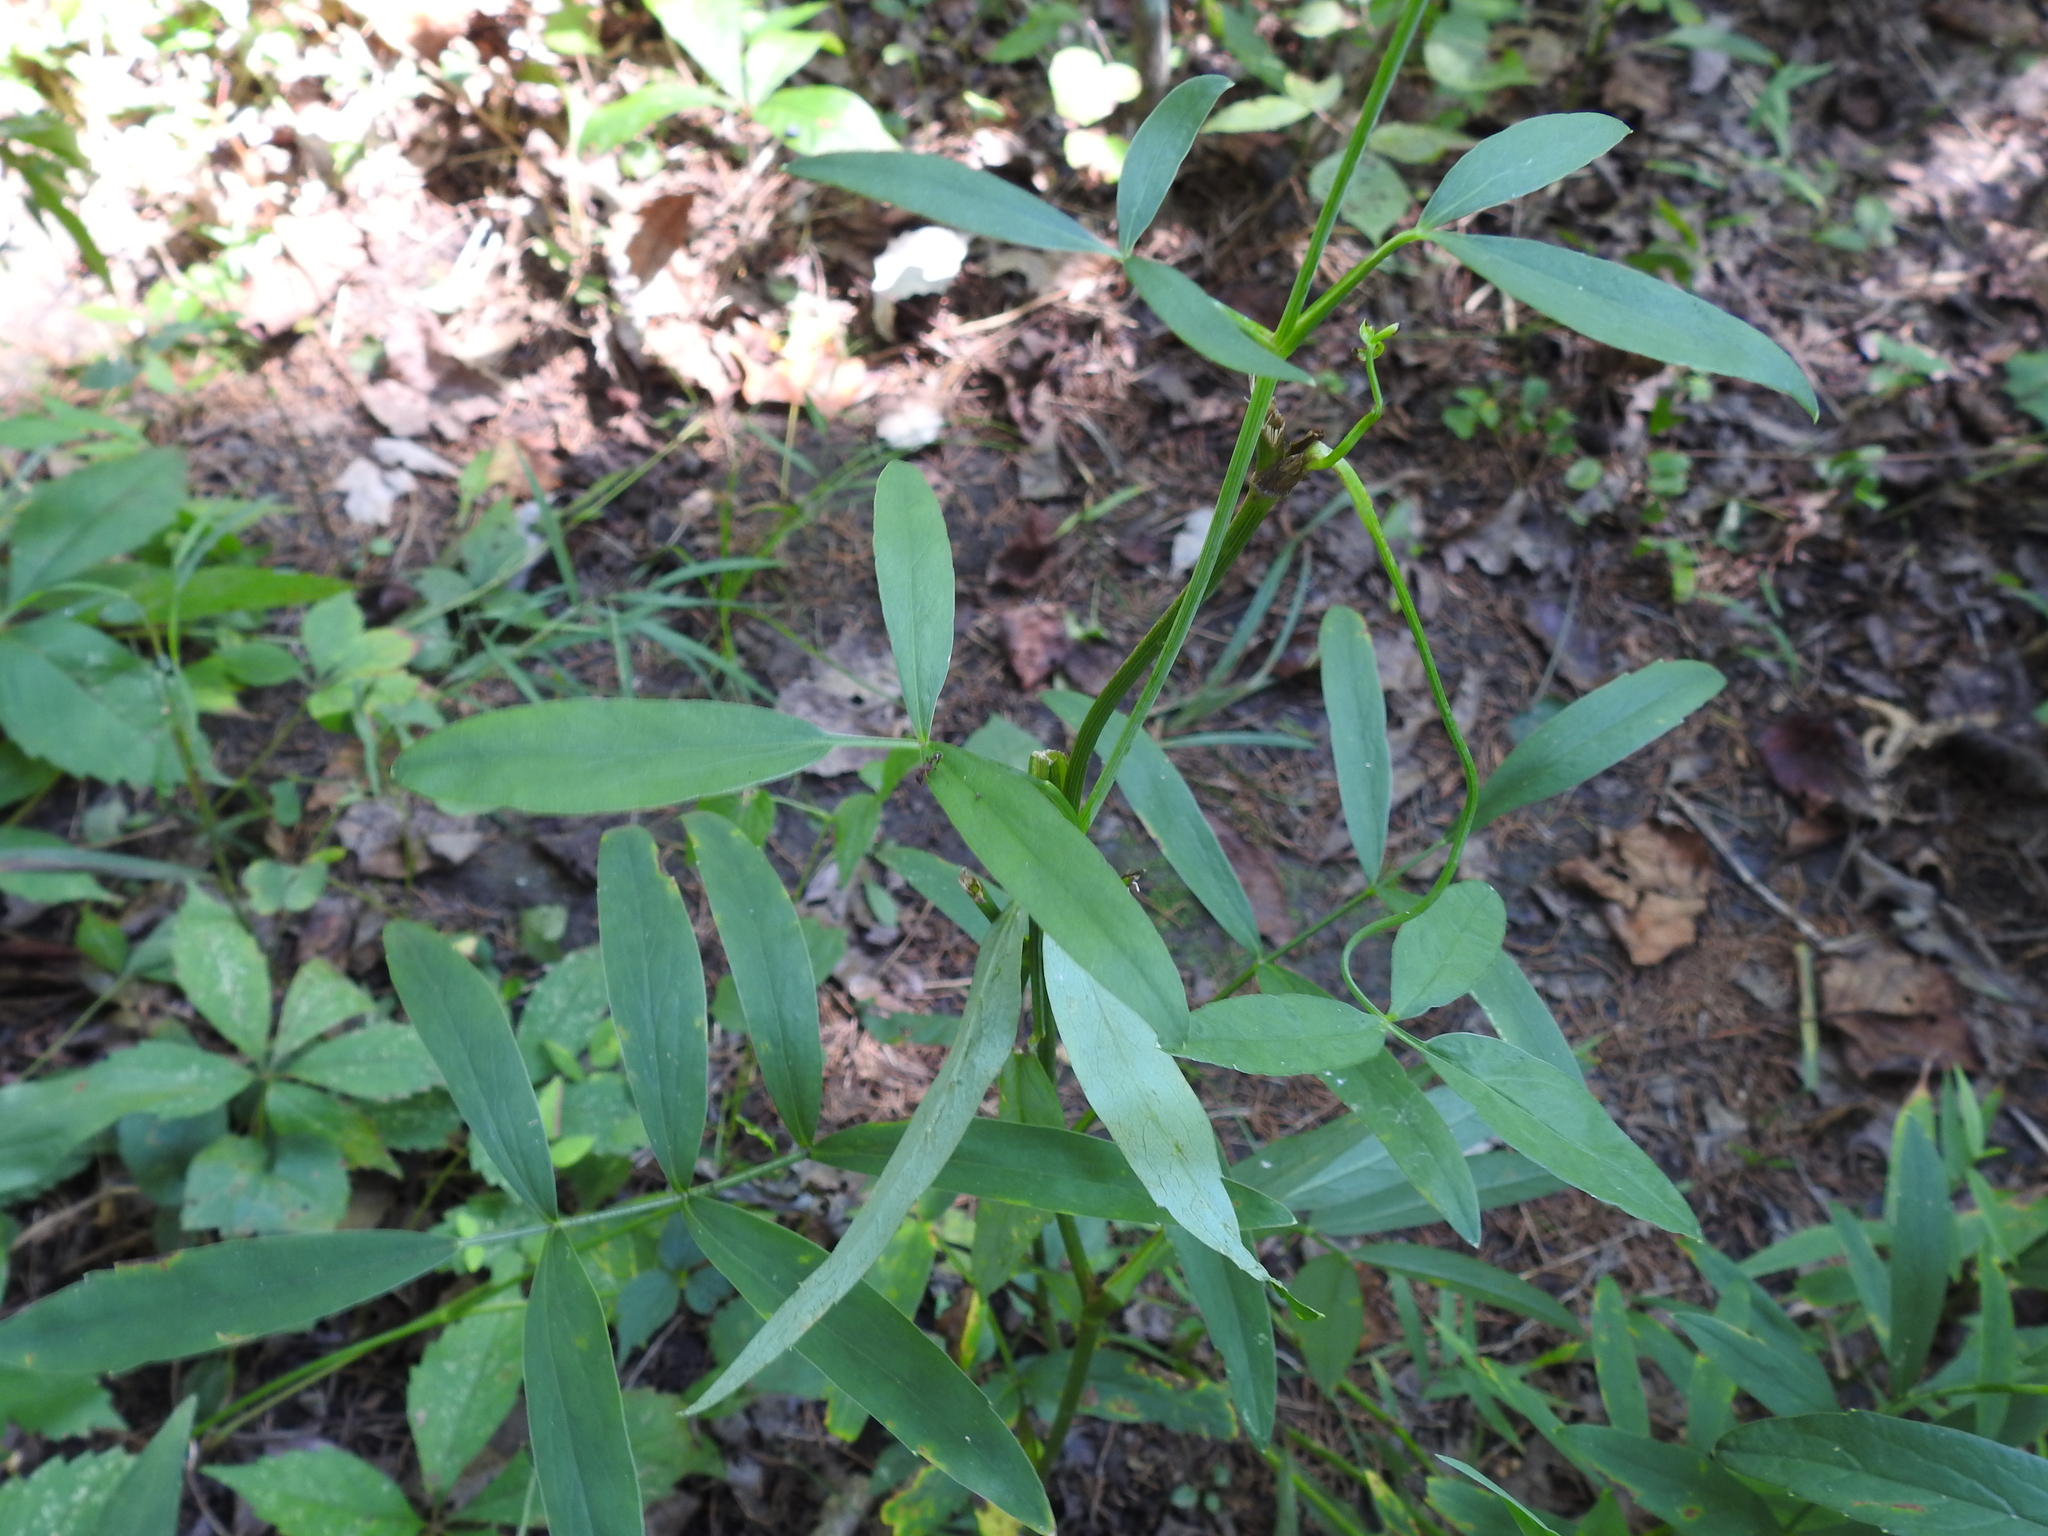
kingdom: Plantae
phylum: Tracheophyta
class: Magnoliopsida
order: Apiales
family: Apiaceae
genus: Oxypolis
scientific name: Oxypolis rigidior
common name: Cowbane
